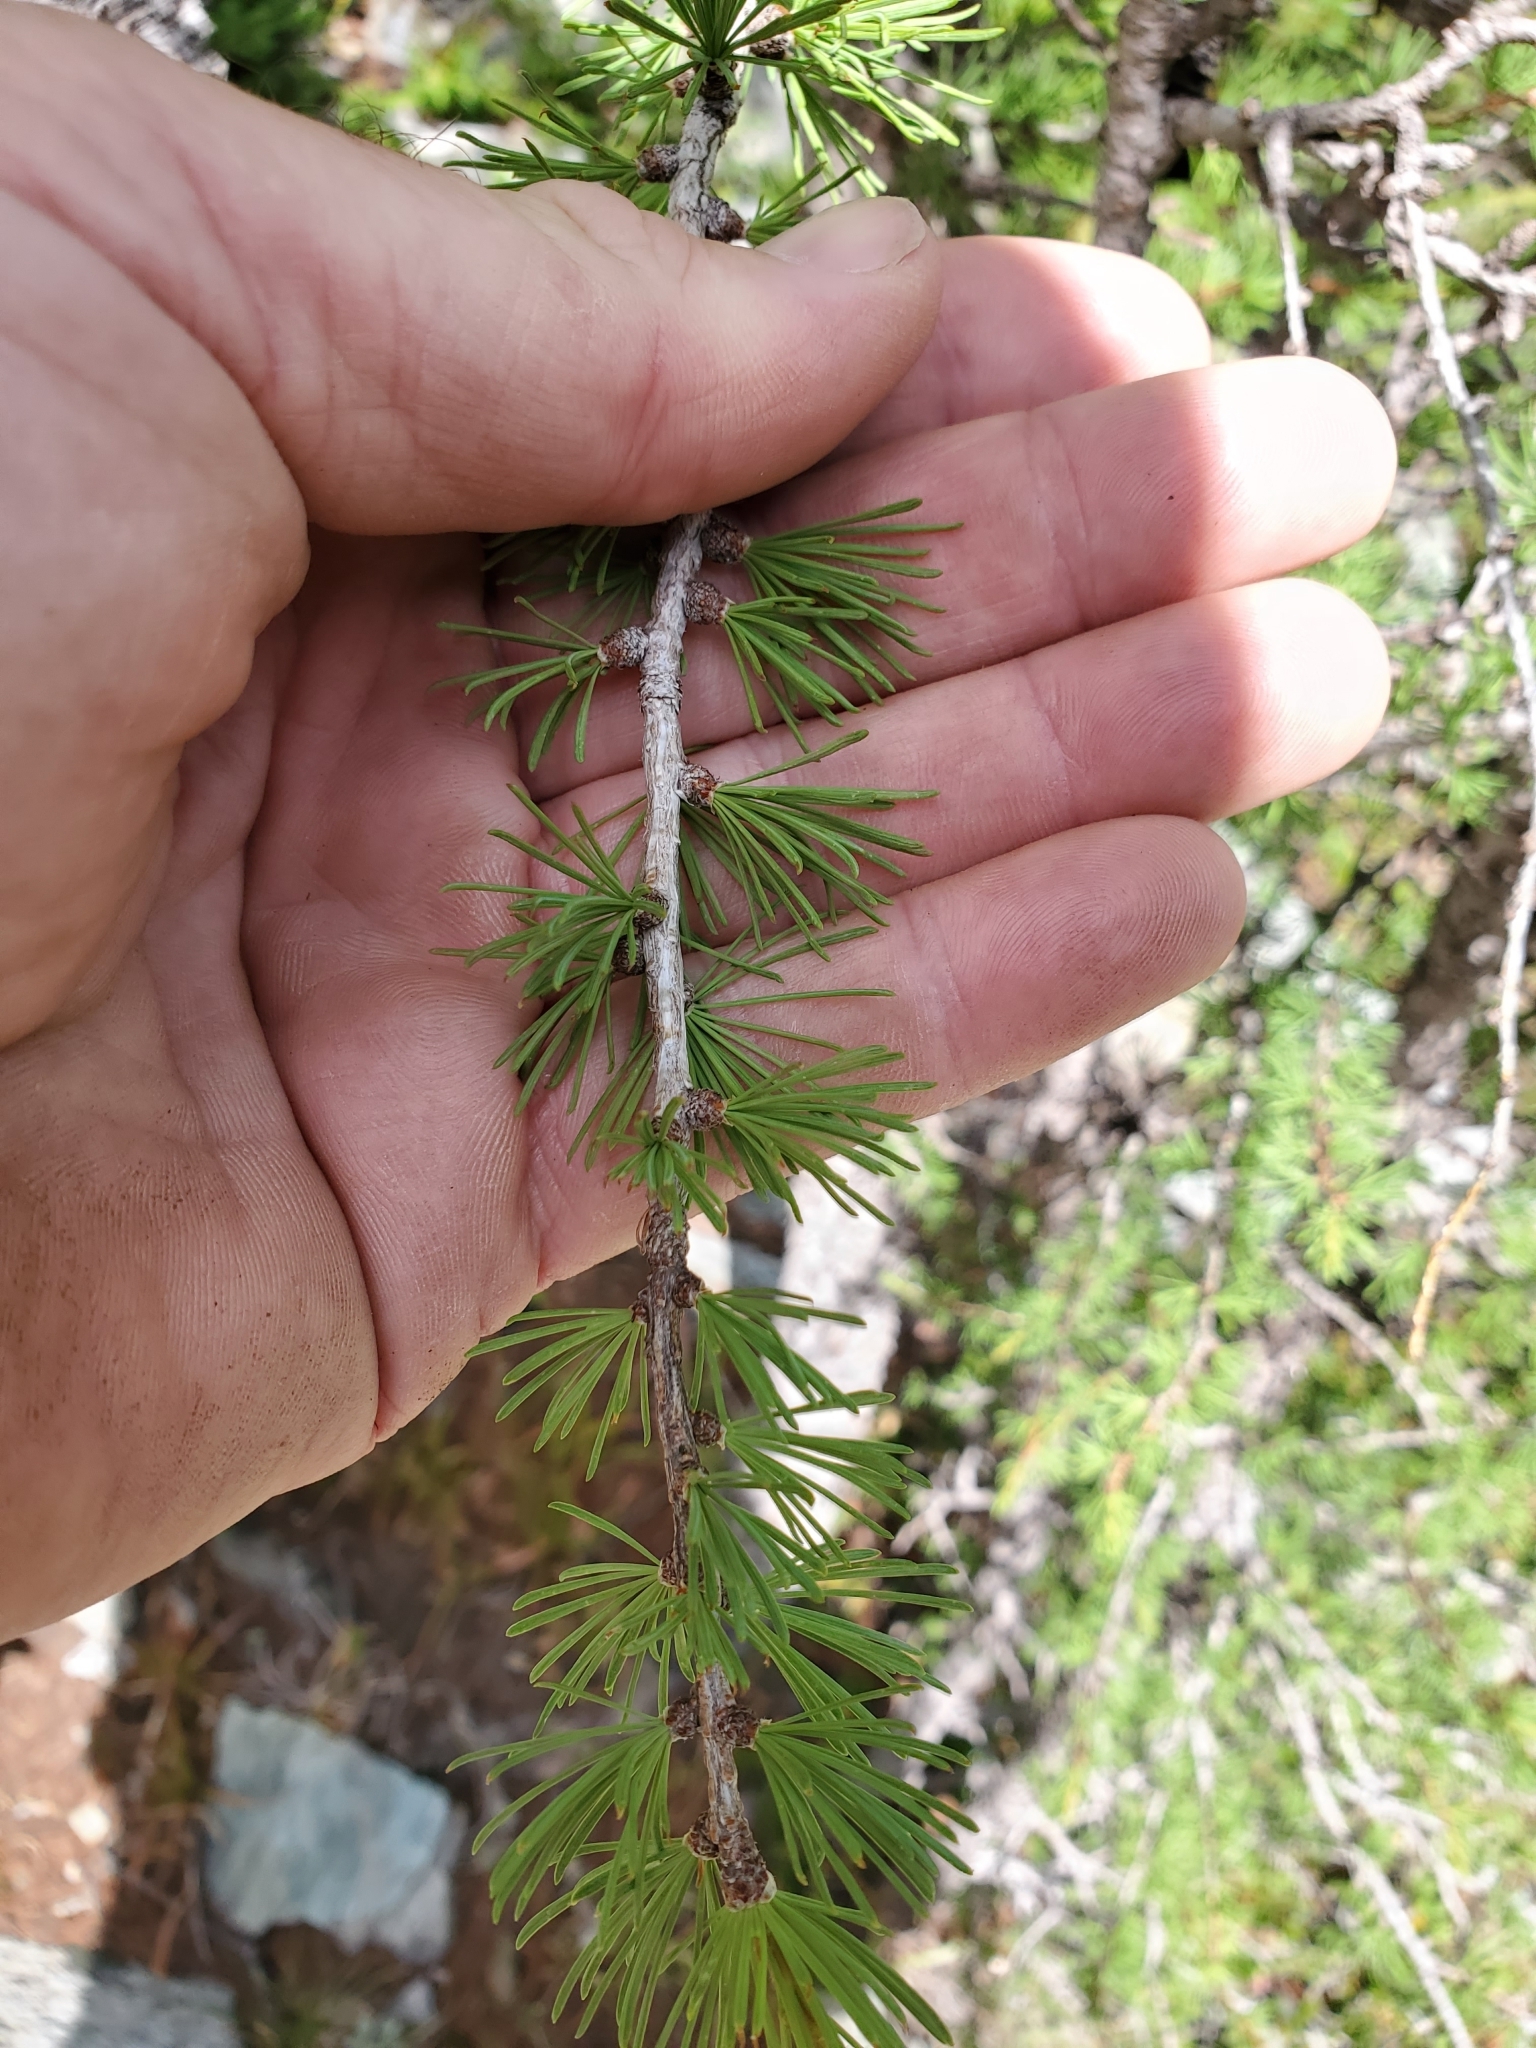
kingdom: Plantae
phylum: Tracheophyta
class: Pinopsida
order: Pinales
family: Pinaceae
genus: Larix
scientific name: Larix lyallii
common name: Alpine larch
